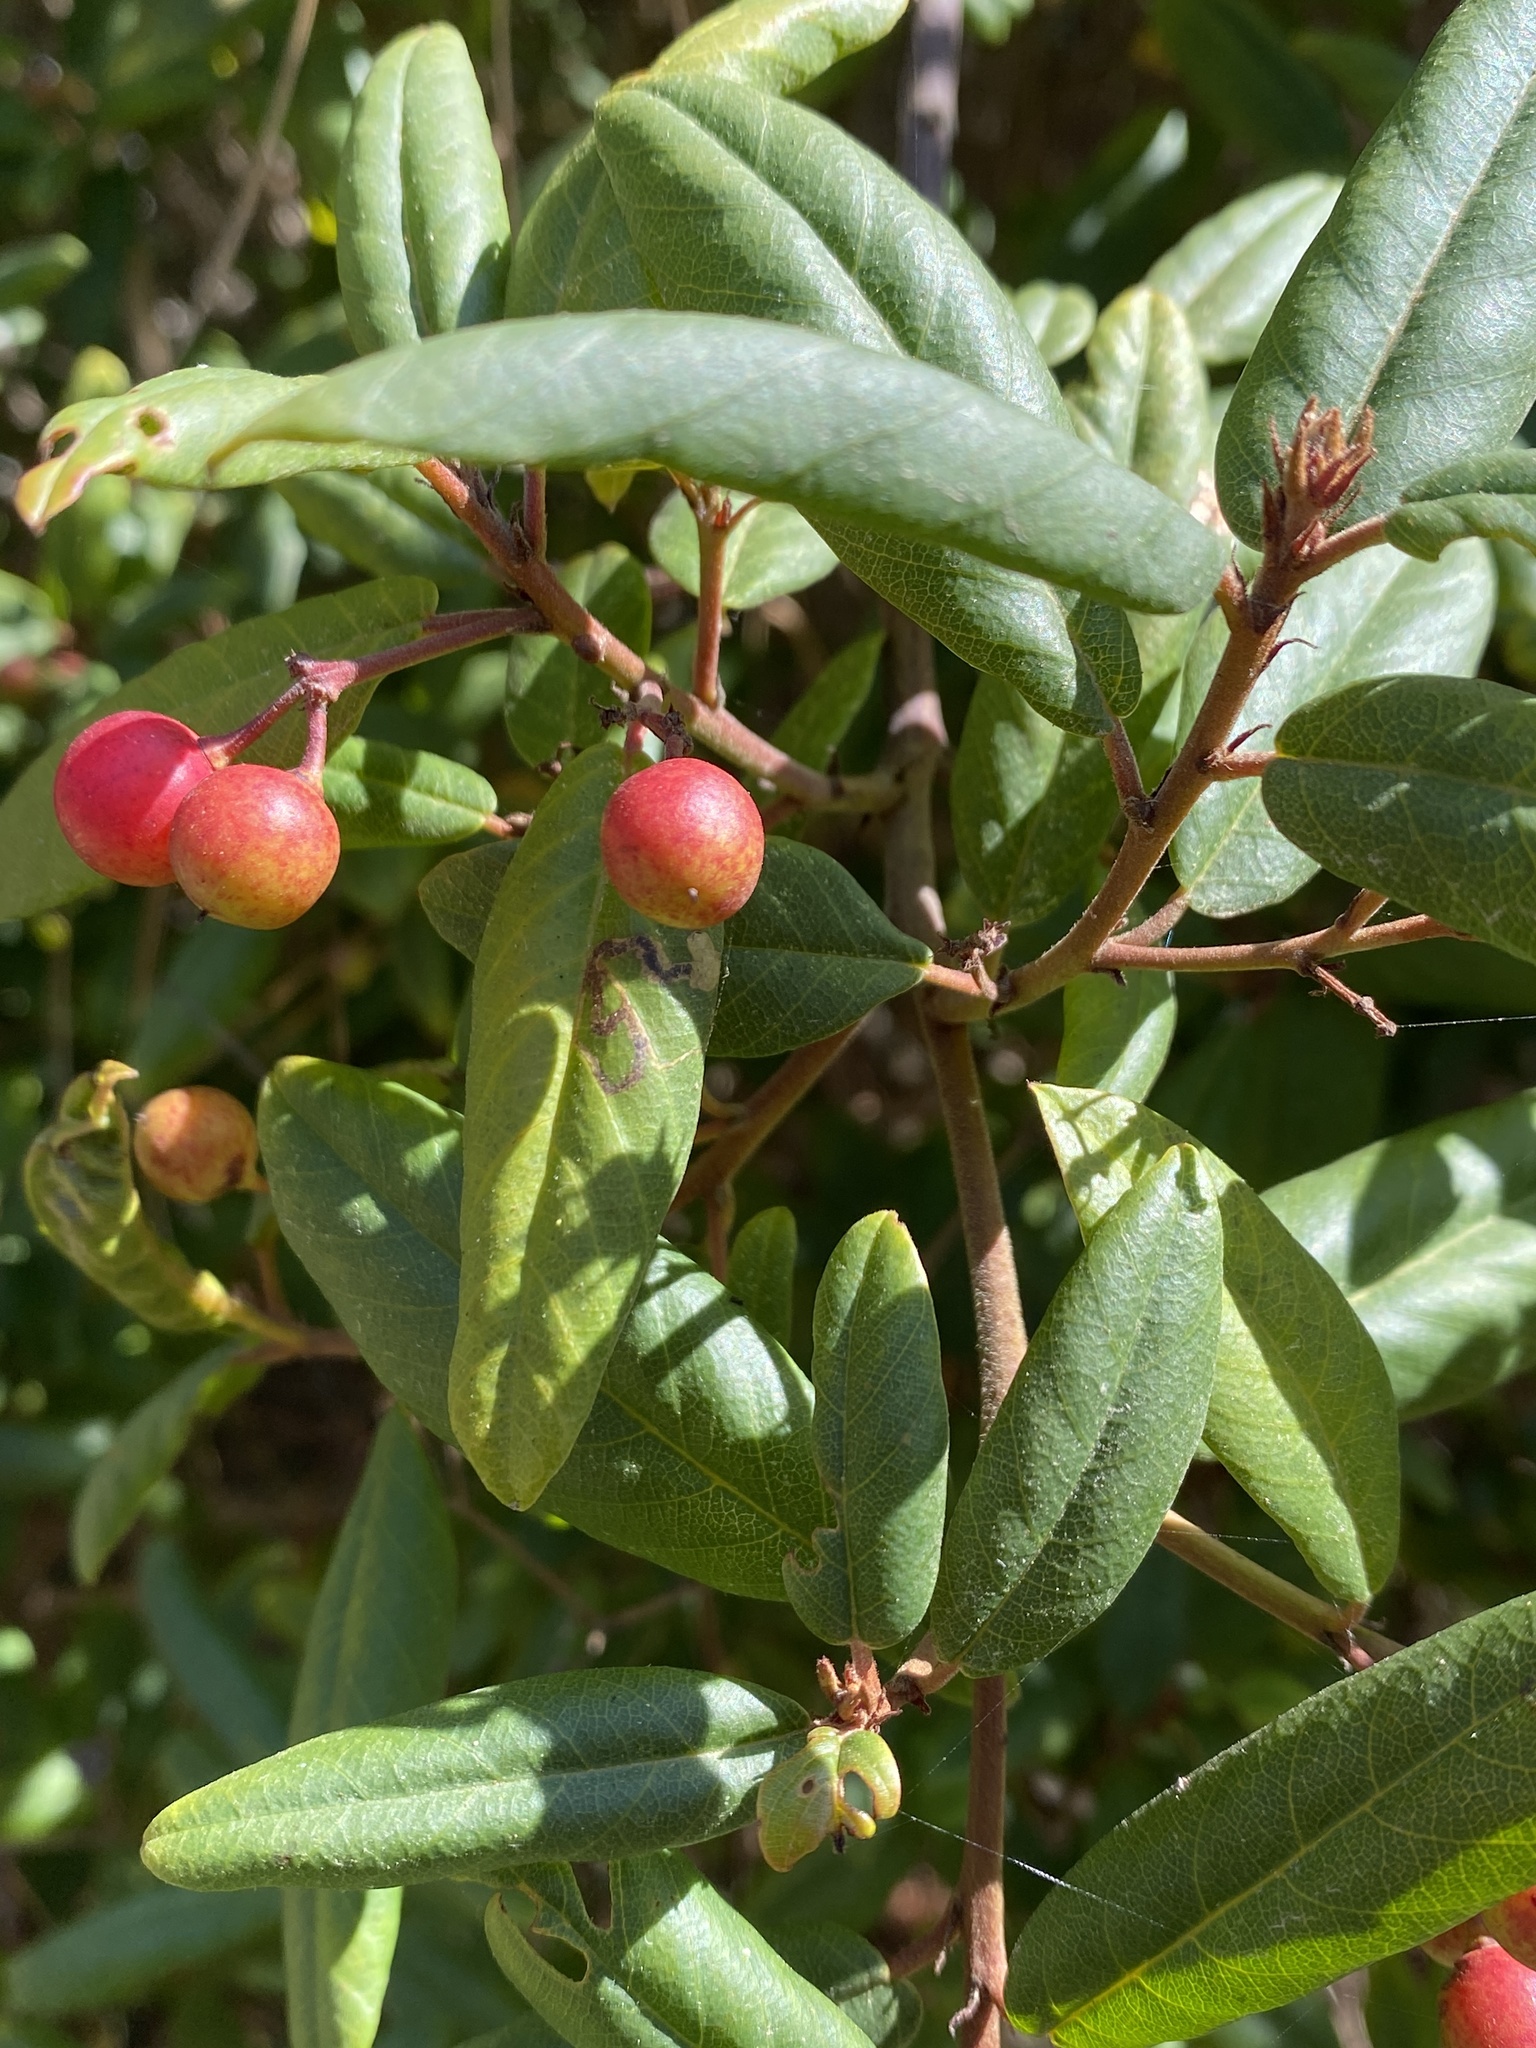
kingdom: Plantae
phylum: Tracheophyta
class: Magnoliopsida
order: Rosales
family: Rhamnaceae
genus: Frangula
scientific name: Frangula californica
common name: California buckthorn
